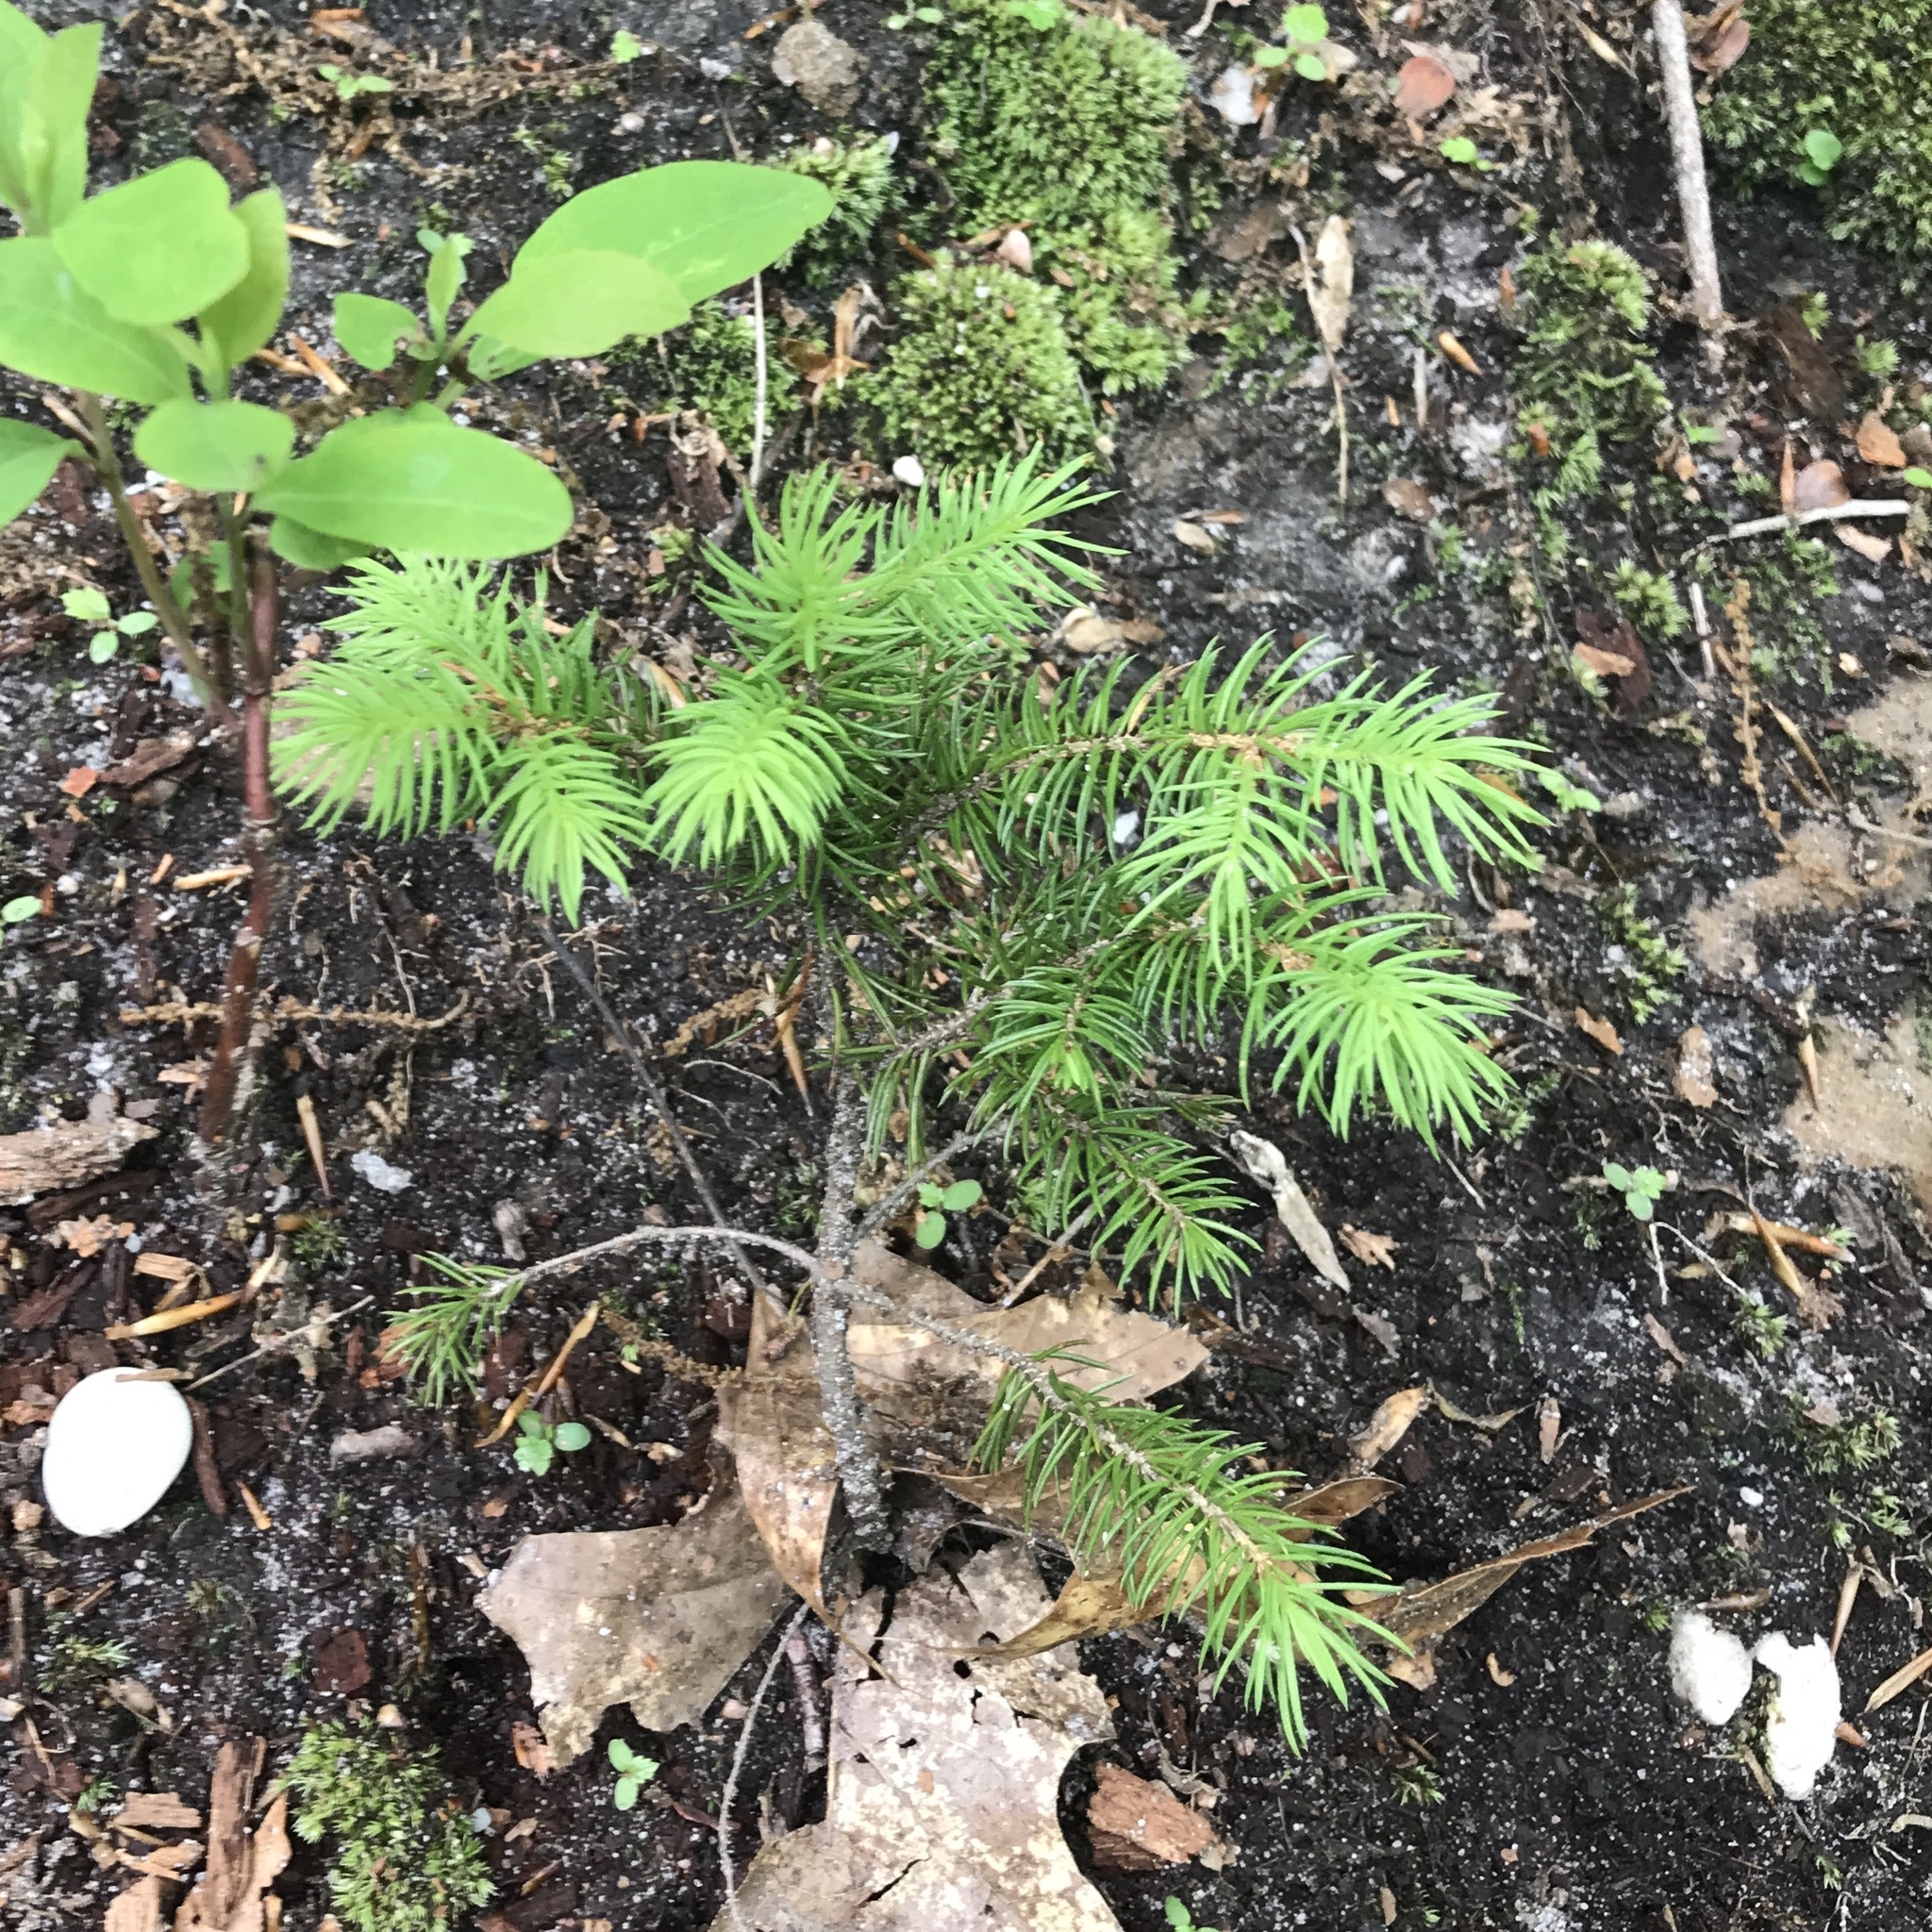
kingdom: Plantae
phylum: Tracheophyta
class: Pinopsida
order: Pinales
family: Pinaceae
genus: Picea
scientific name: Picea abies
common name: Norway spruce
